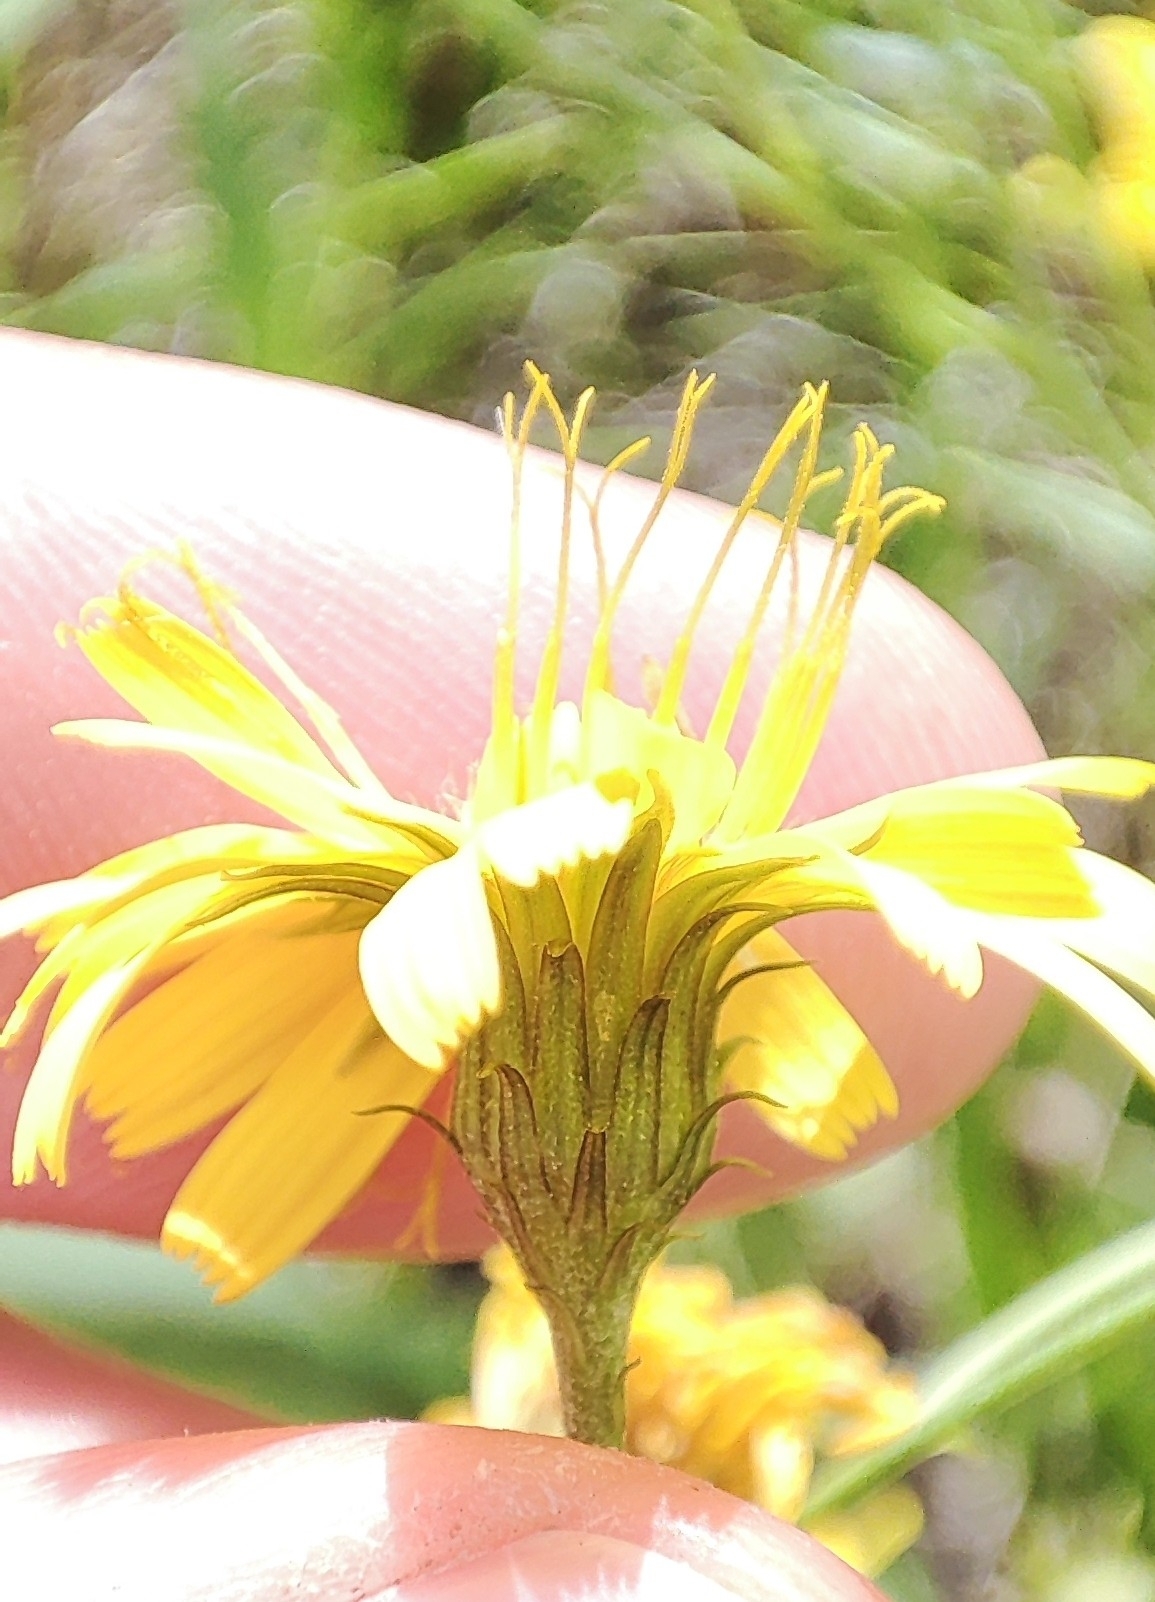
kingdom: Plantae
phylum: Tracheophyta
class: Magnoliopsida
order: Asterales
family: Asteraceae
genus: Hieracium
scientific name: Hieracium umbellatum
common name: Northern hawkweed
